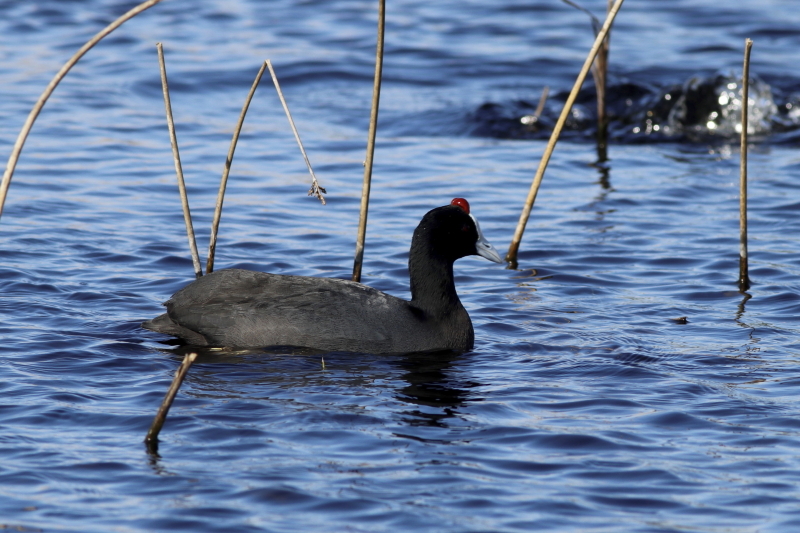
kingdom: Animalia
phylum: Chordata
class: Aves
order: Gruiformes
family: Rallidae
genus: Fulica
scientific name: Fulica cristata
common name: Red-knobbed coot
